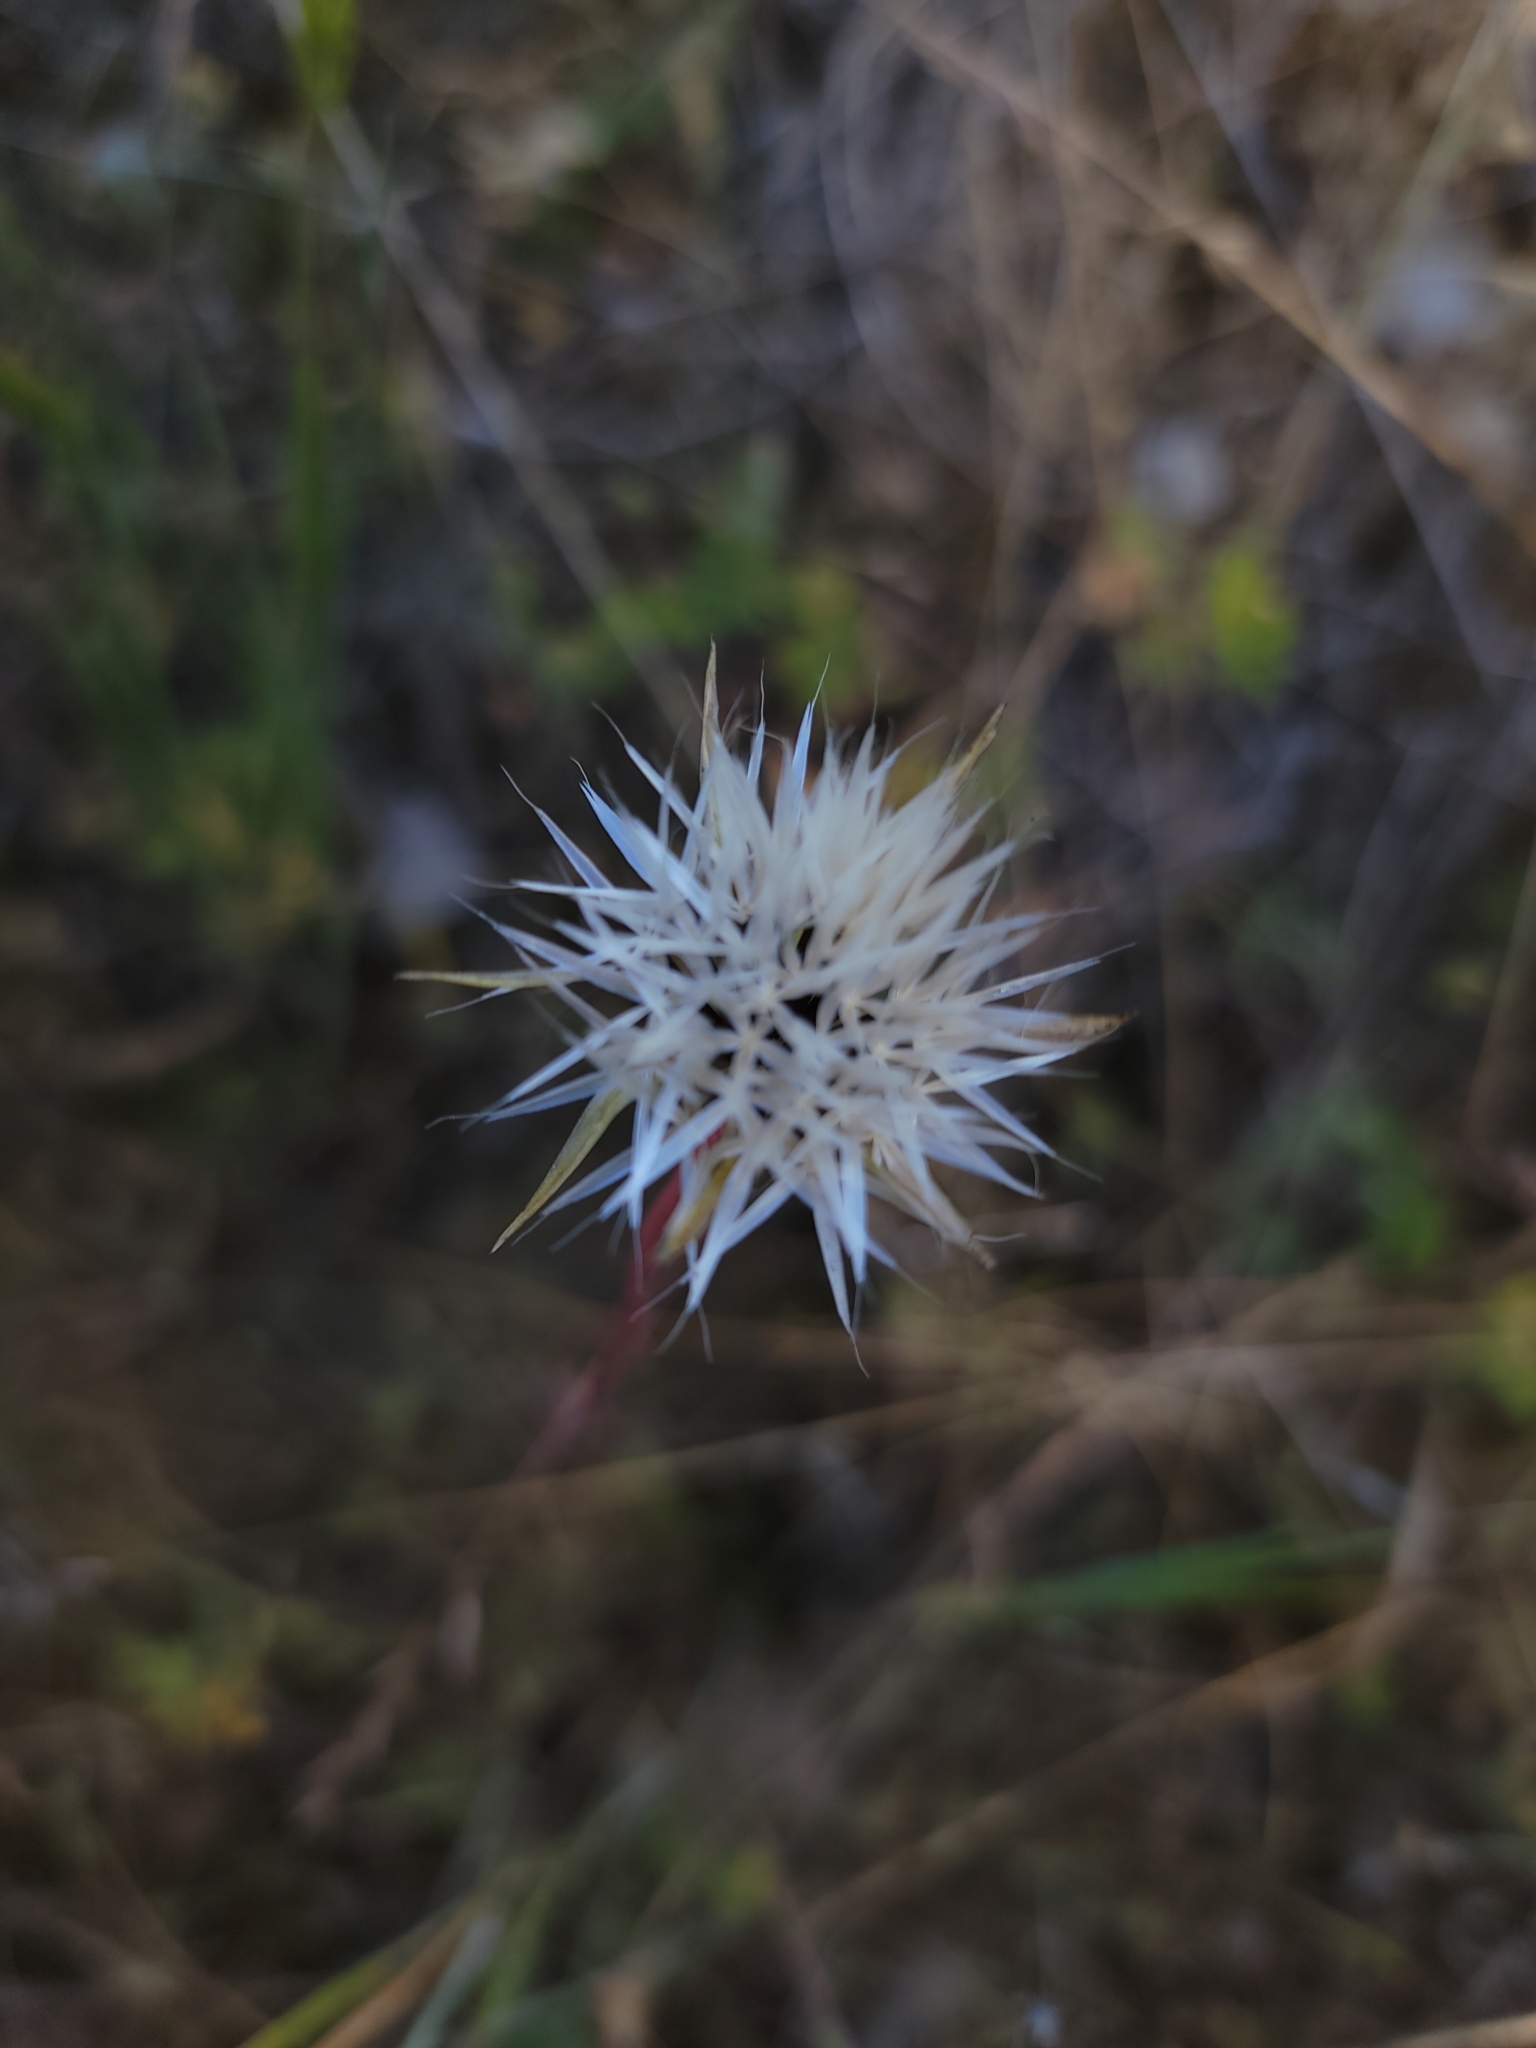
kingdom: Plantae
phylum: Tracheophyta
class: Magnoliopsida
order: Asterales
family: Asteraceae
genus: Microseris
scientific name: Microseris lindleyi
